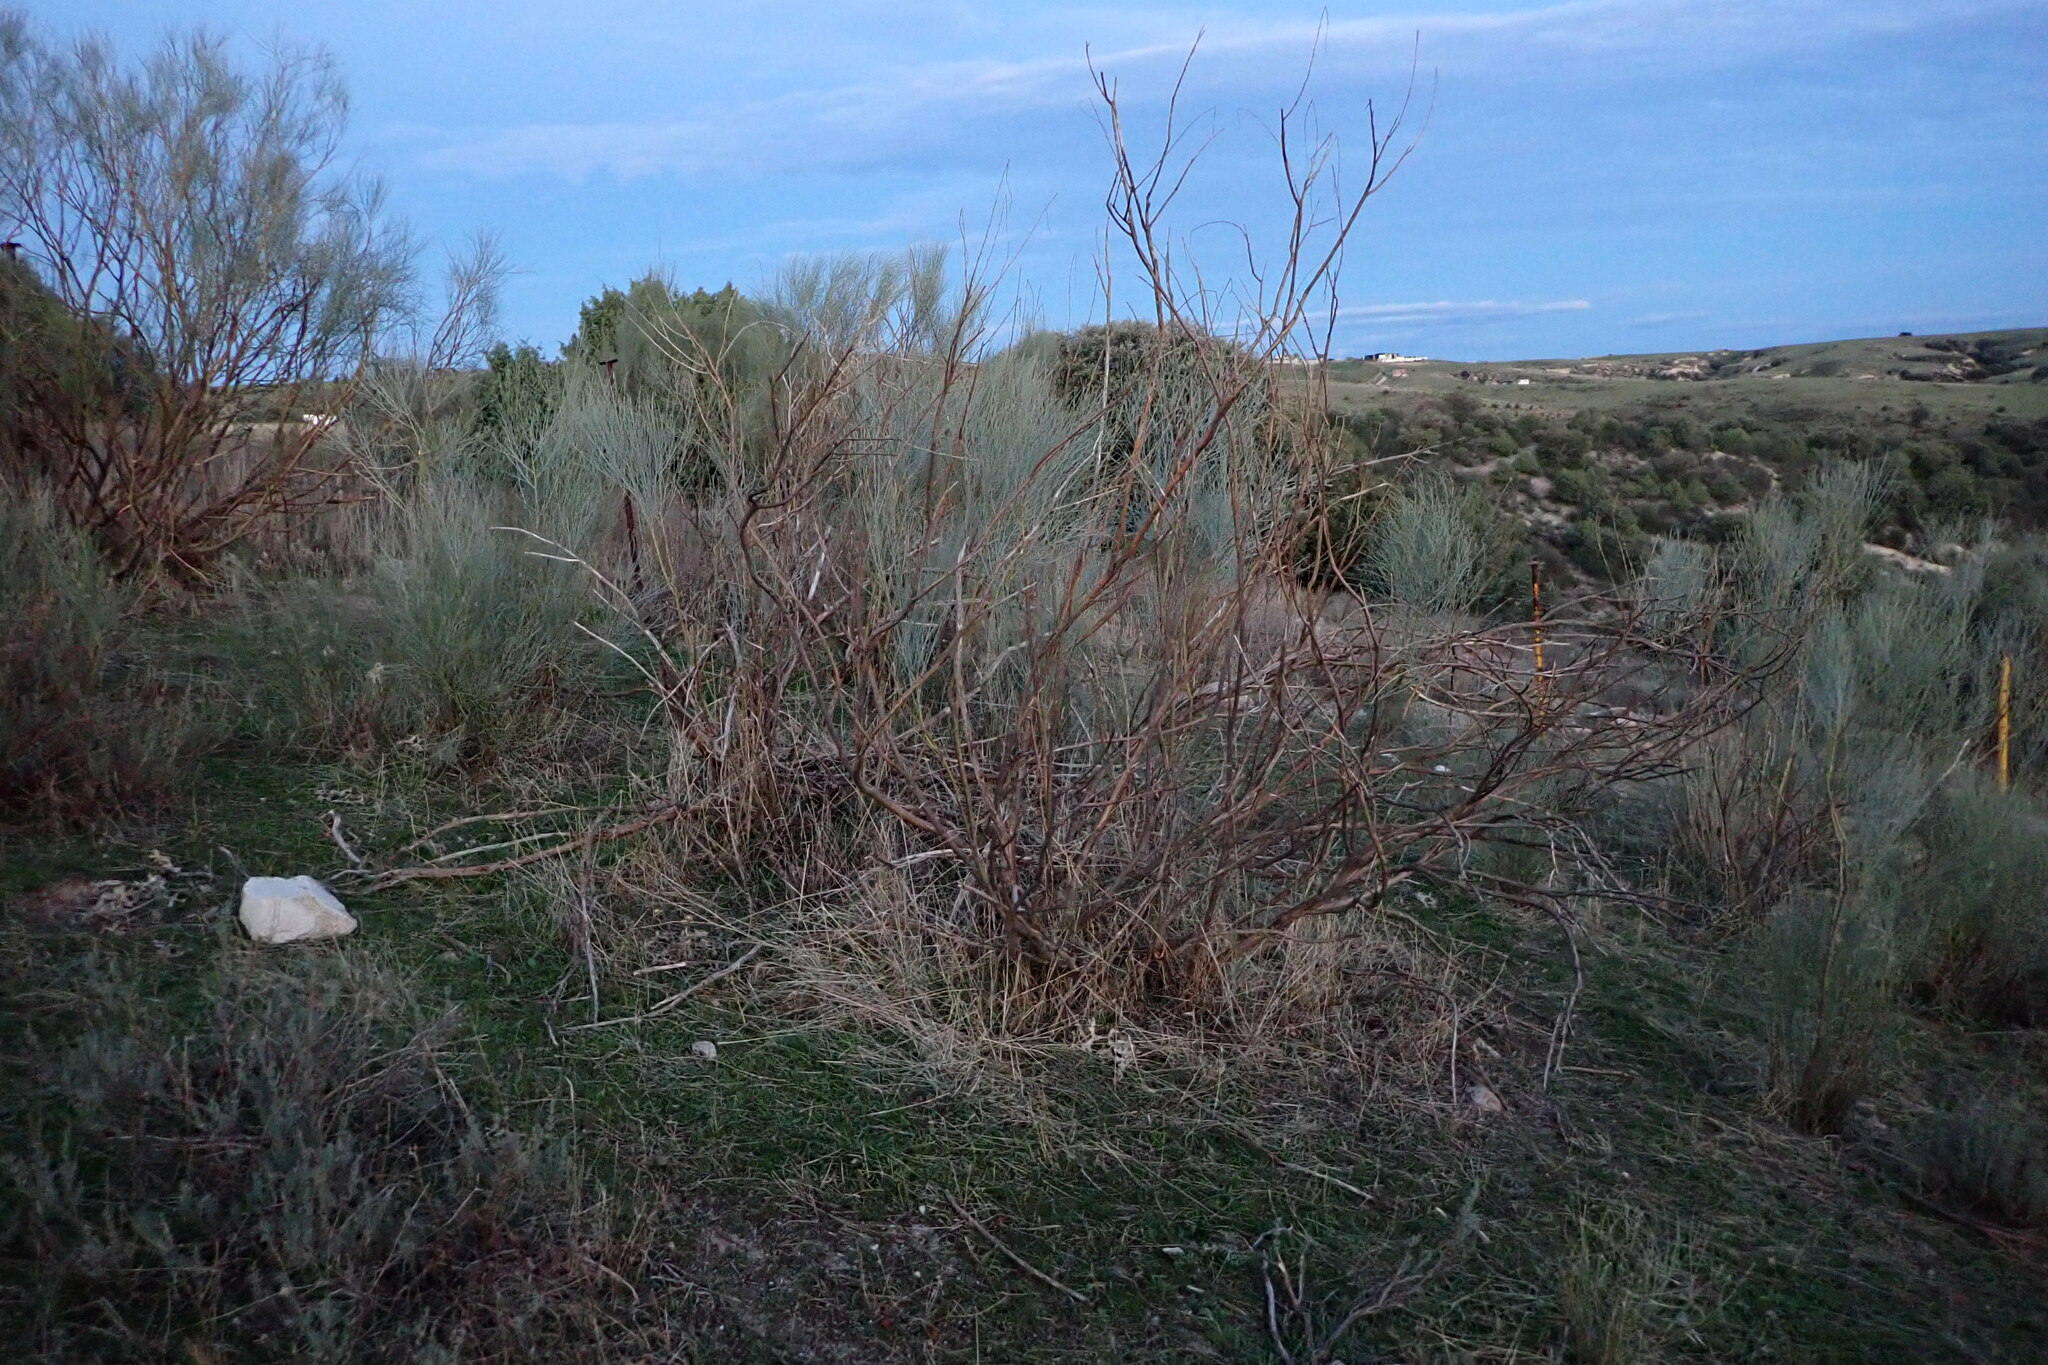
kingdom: Plantae
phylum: Tracheophyta
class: Magnoliopsida
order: Fabales
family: Fabaceae
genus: Retama
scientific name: Retama sphaerocarpa
